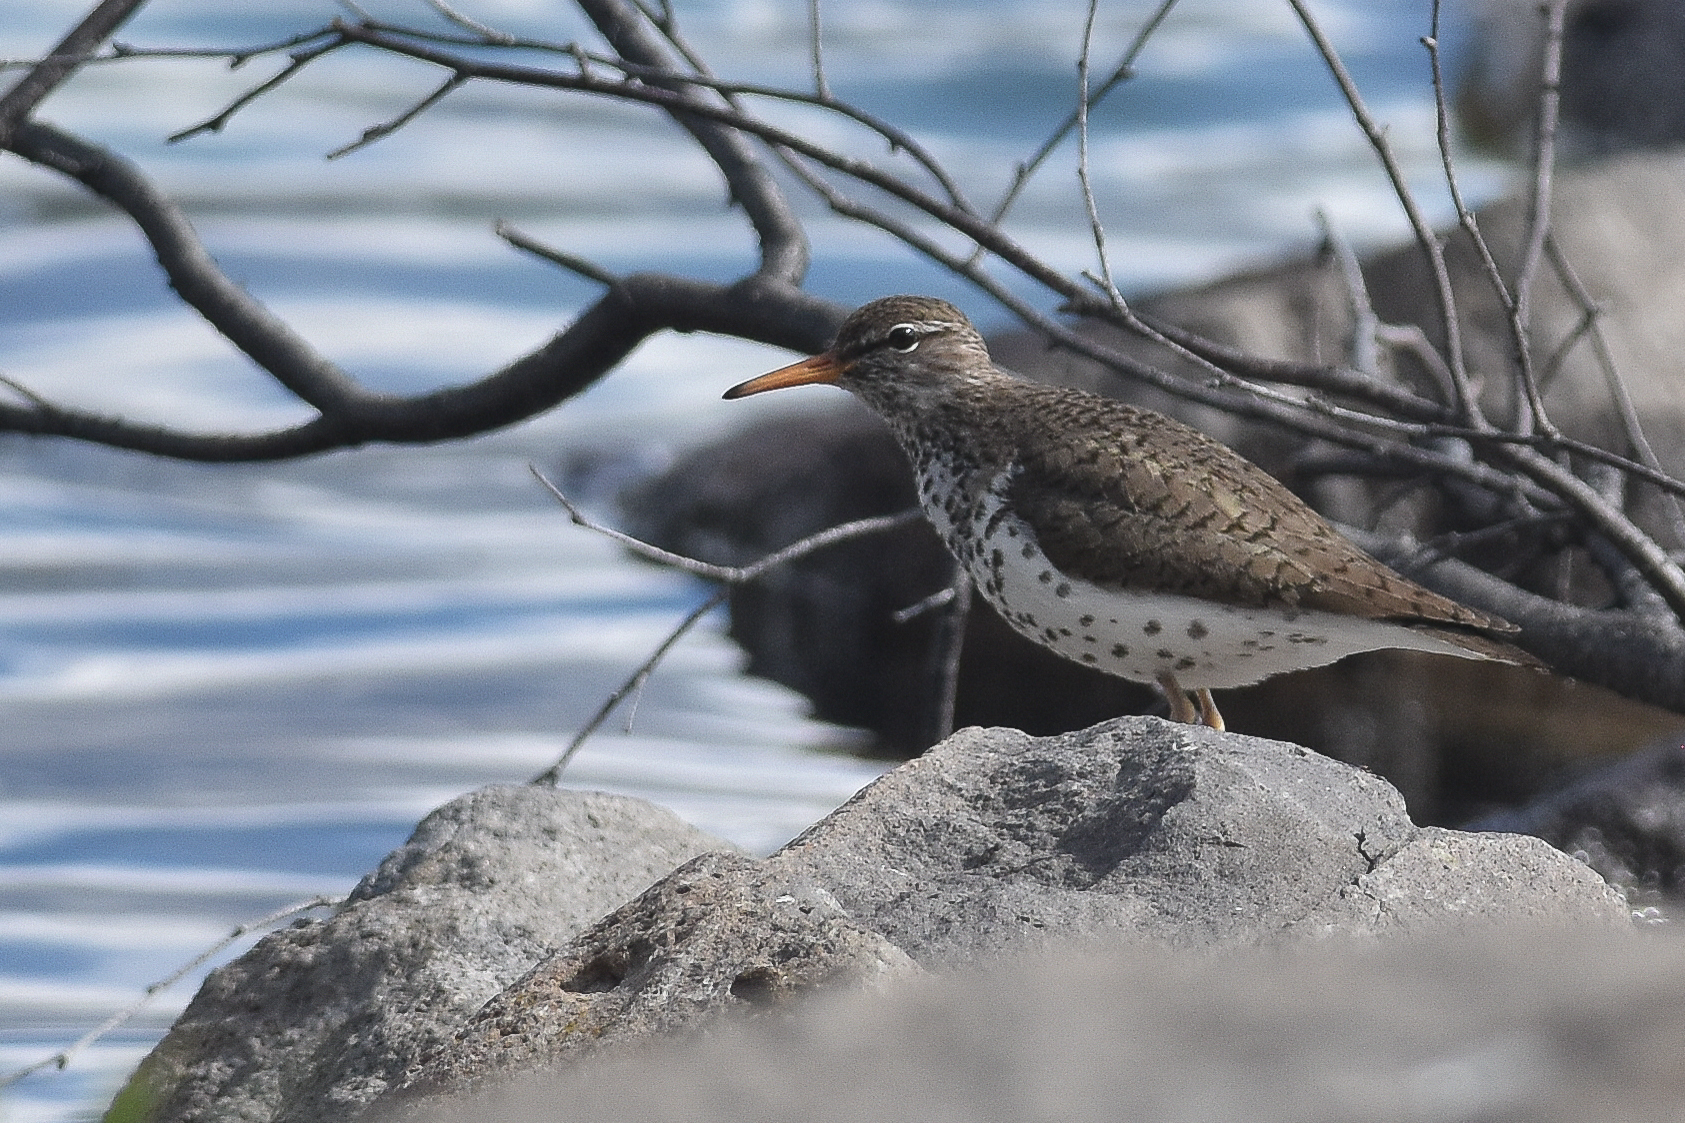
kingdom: Animalia
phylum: Chordata
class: Aves
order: Charadriiformes
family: Scolopacidae
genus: Actitis
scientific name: Actitis macularius
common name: Spotted sandpiper
